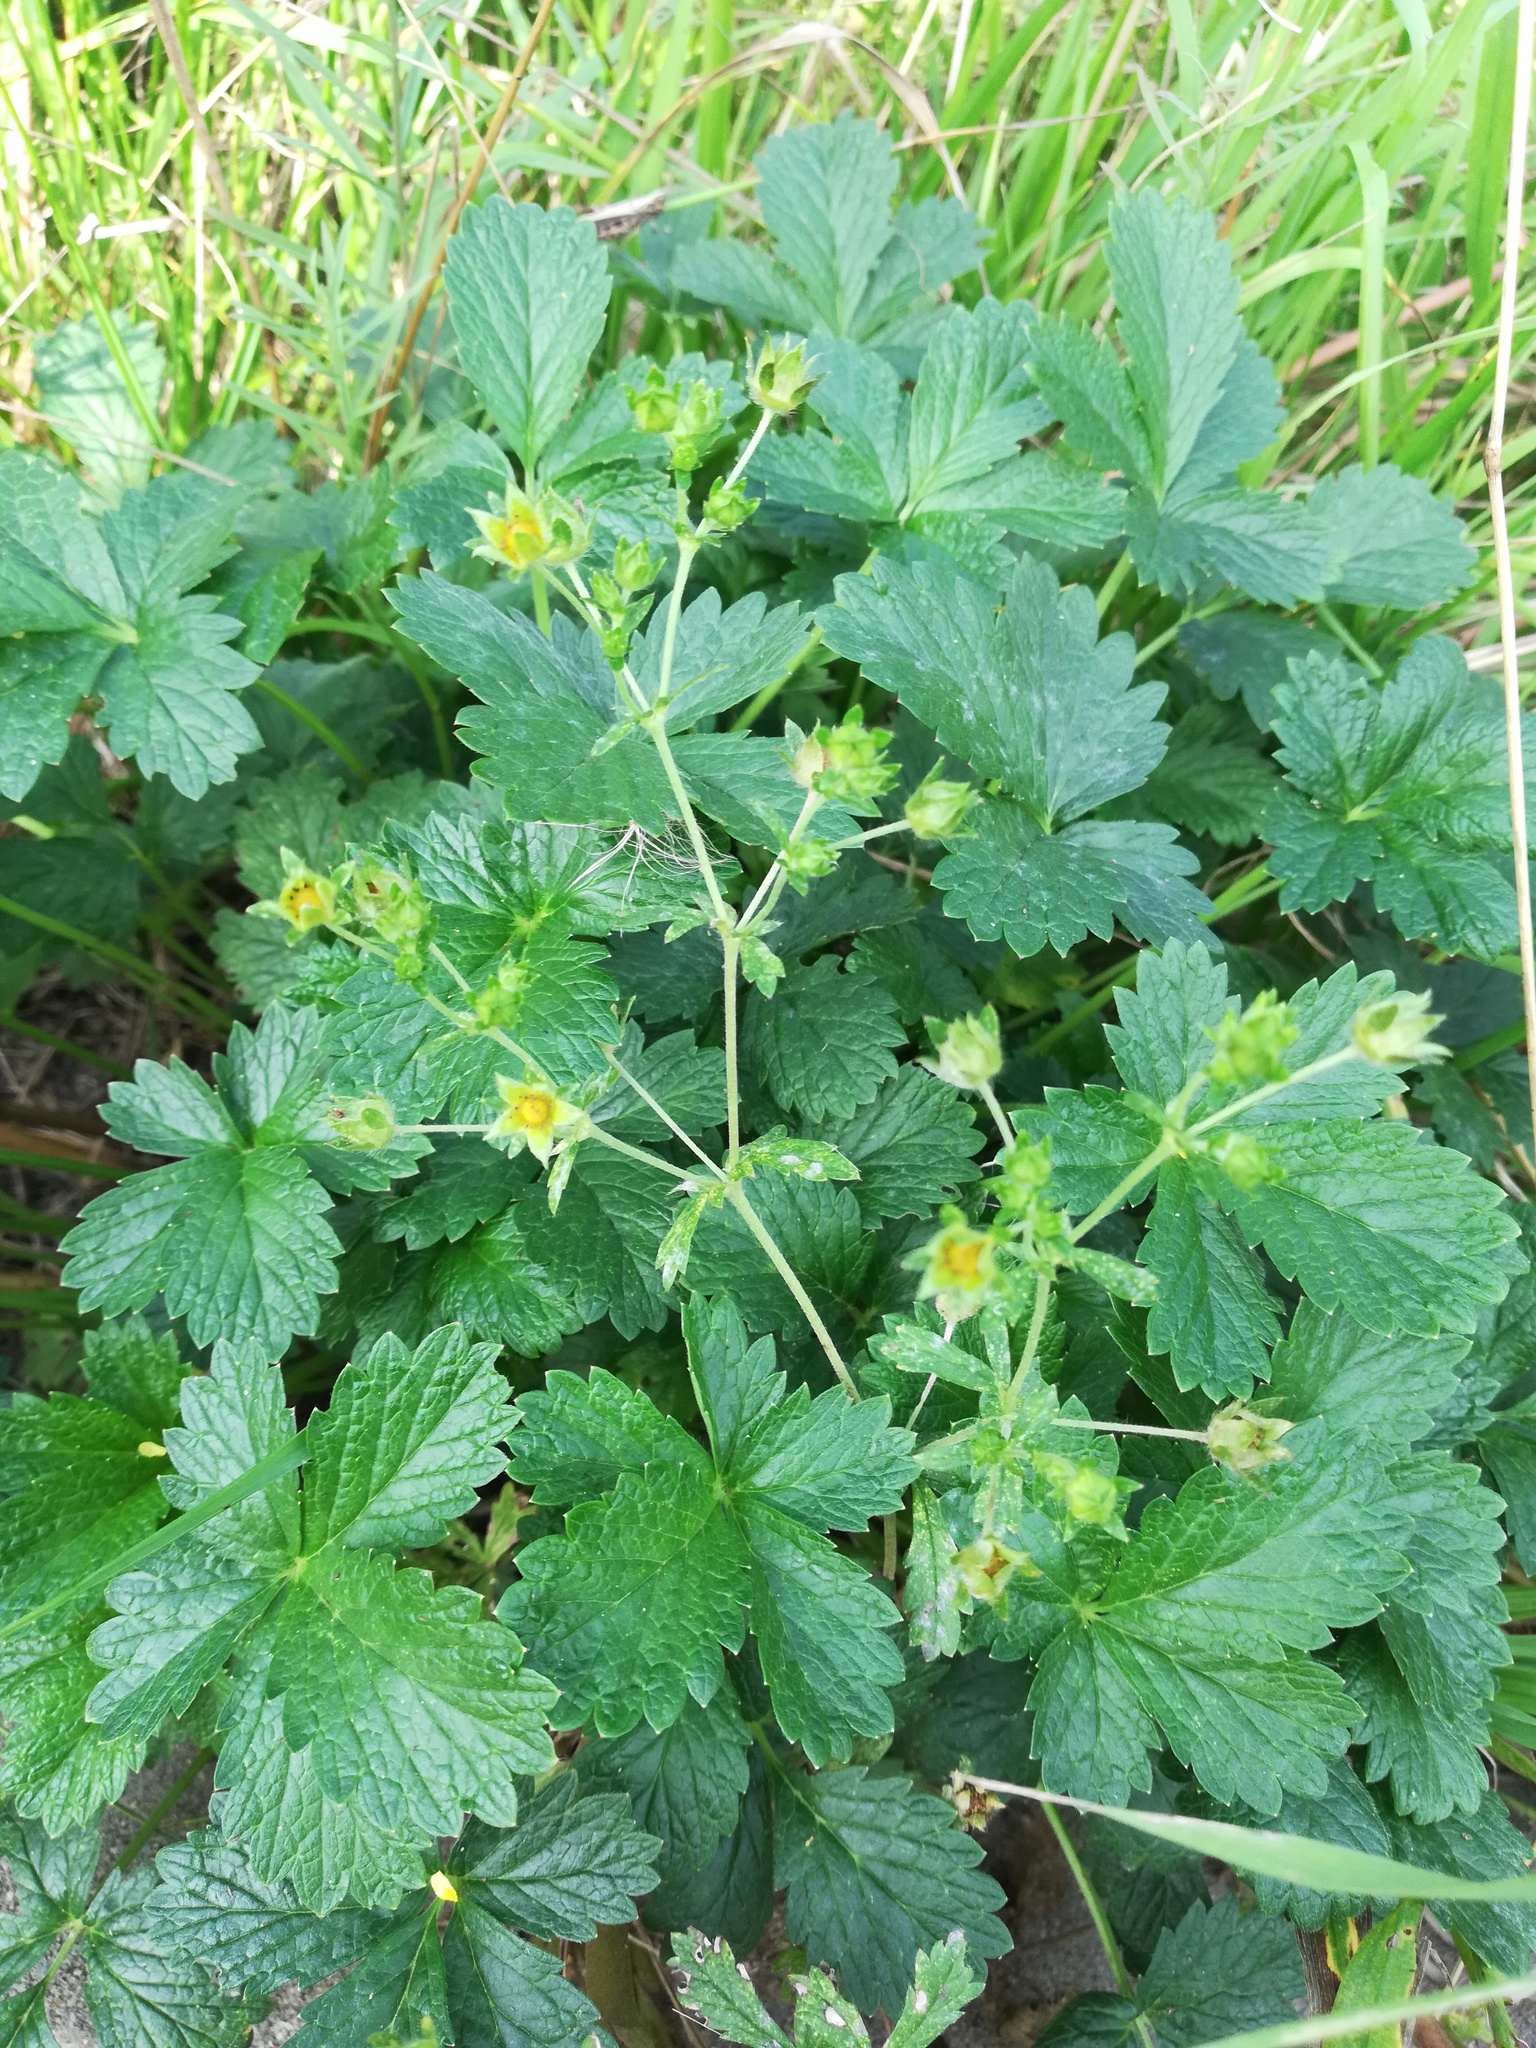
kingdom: Plantae
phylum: Tracheophyta
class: Magnoliopsida
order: Rosales
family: Rosaceae
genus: Potentilla
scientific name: Potentilla intermedia
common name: Downy cinquefoil
